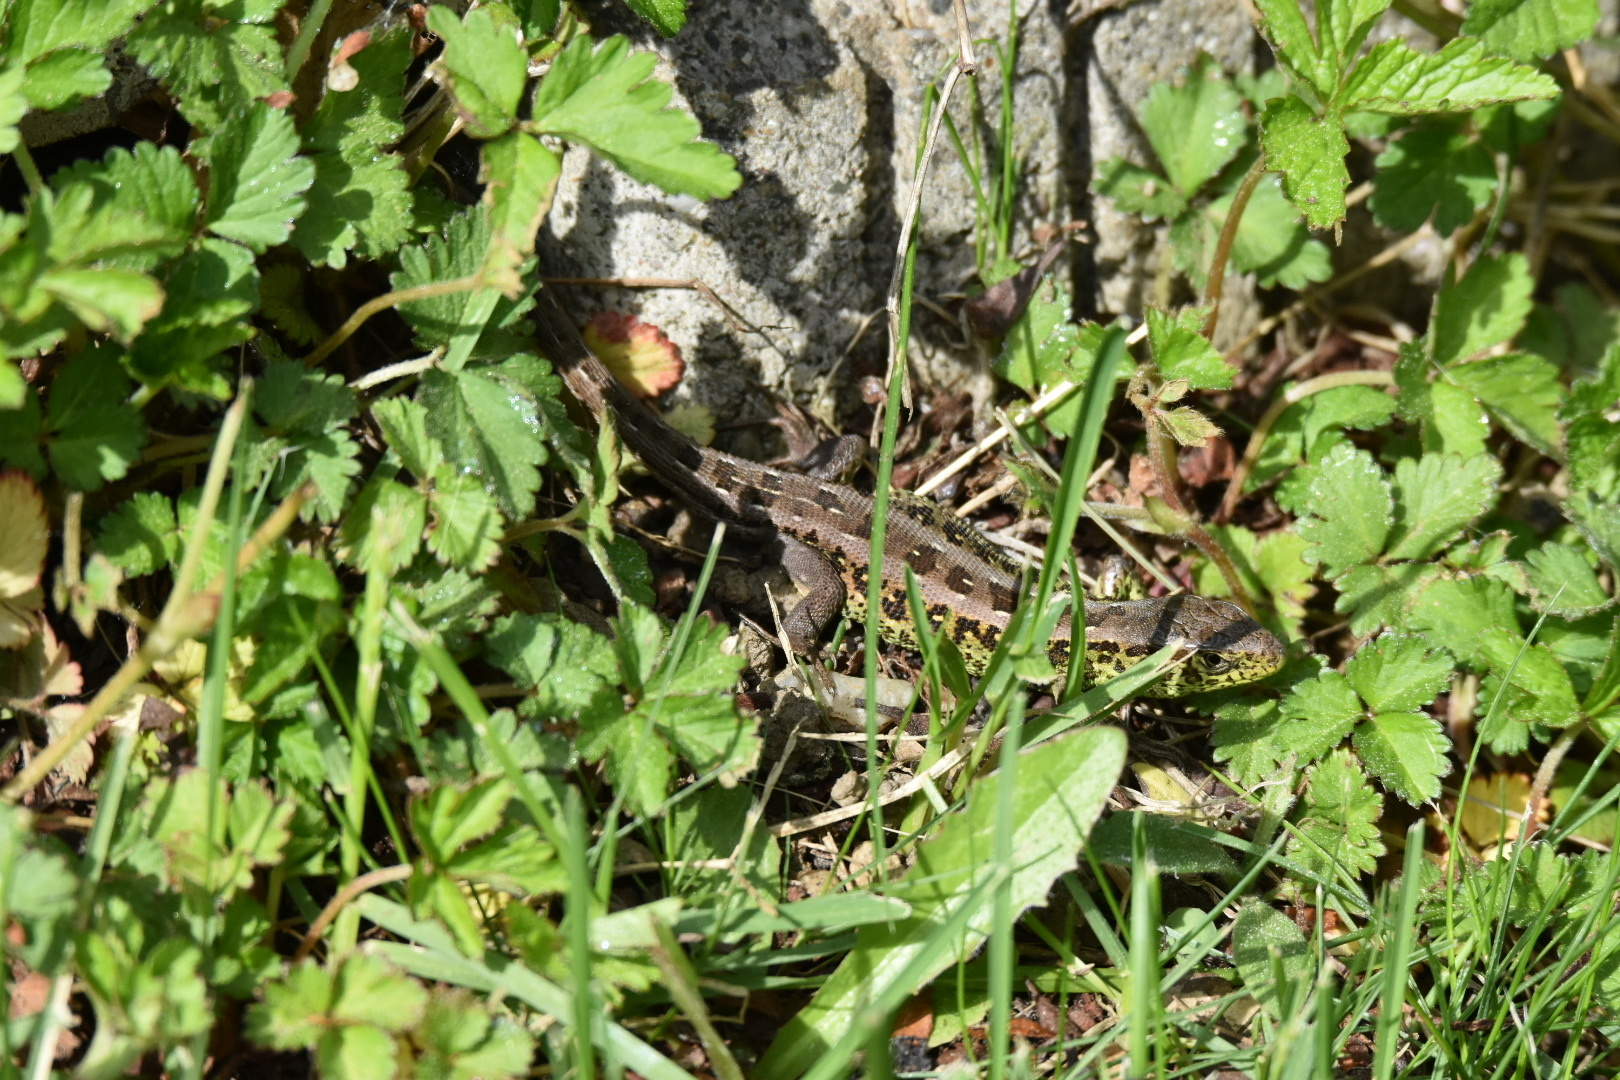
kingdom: Animalia
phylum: Chordata
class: Squamata
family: Lacertidae
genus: Lacerta
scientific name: Lacerta agilis
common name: Sand lizard
